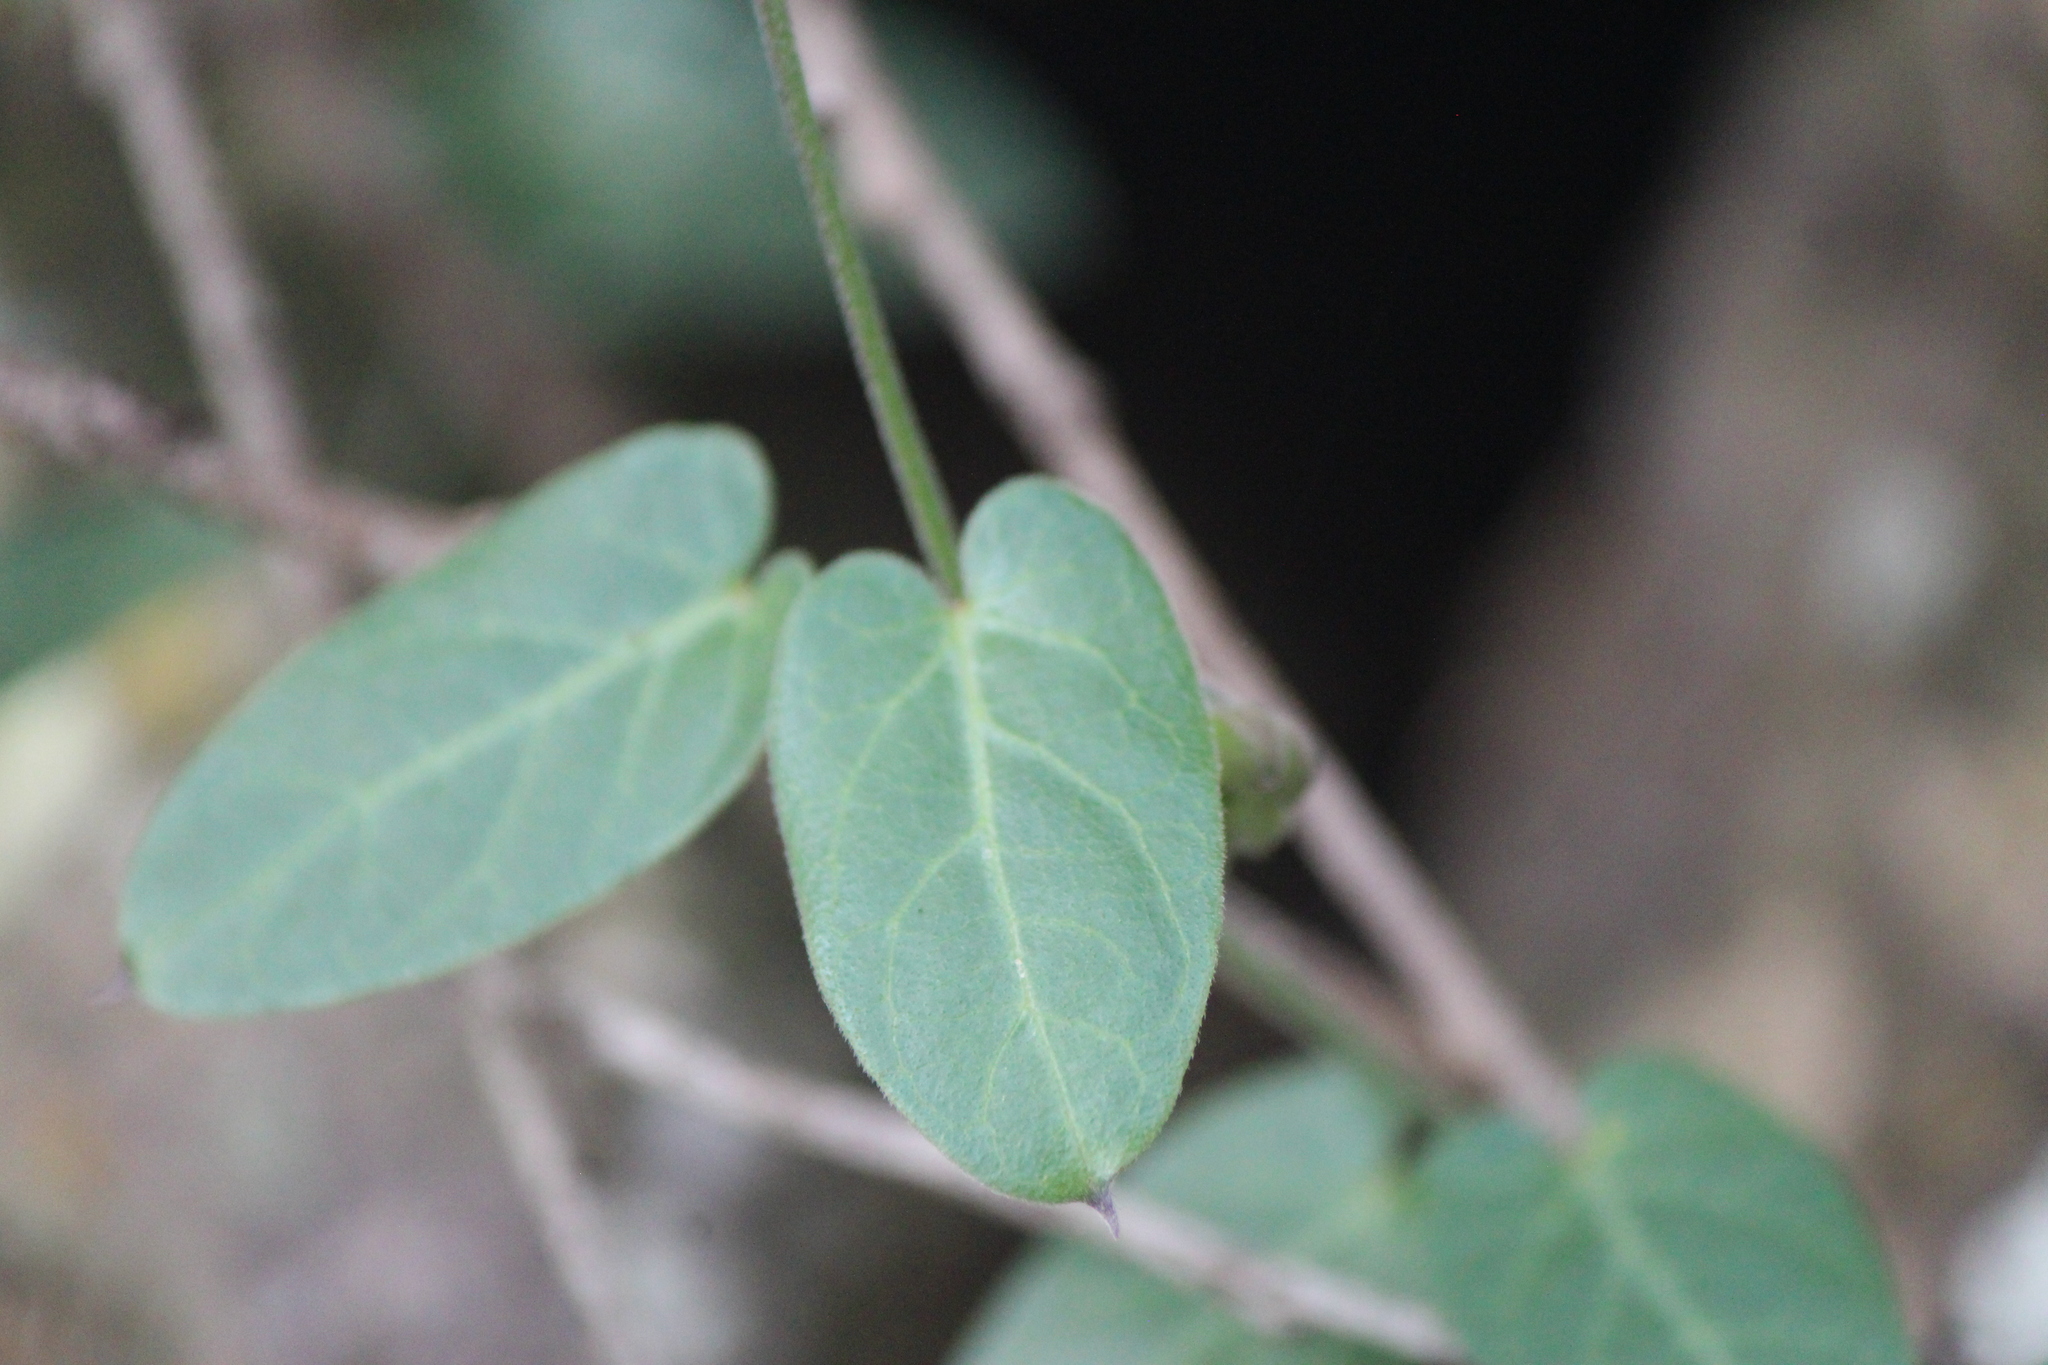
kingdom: Plantae
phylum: Tracheophyta
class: Magnoliopsida
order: Gentianales
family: Apocynaceae
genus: Funastrum
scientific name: Funastrum elegans
